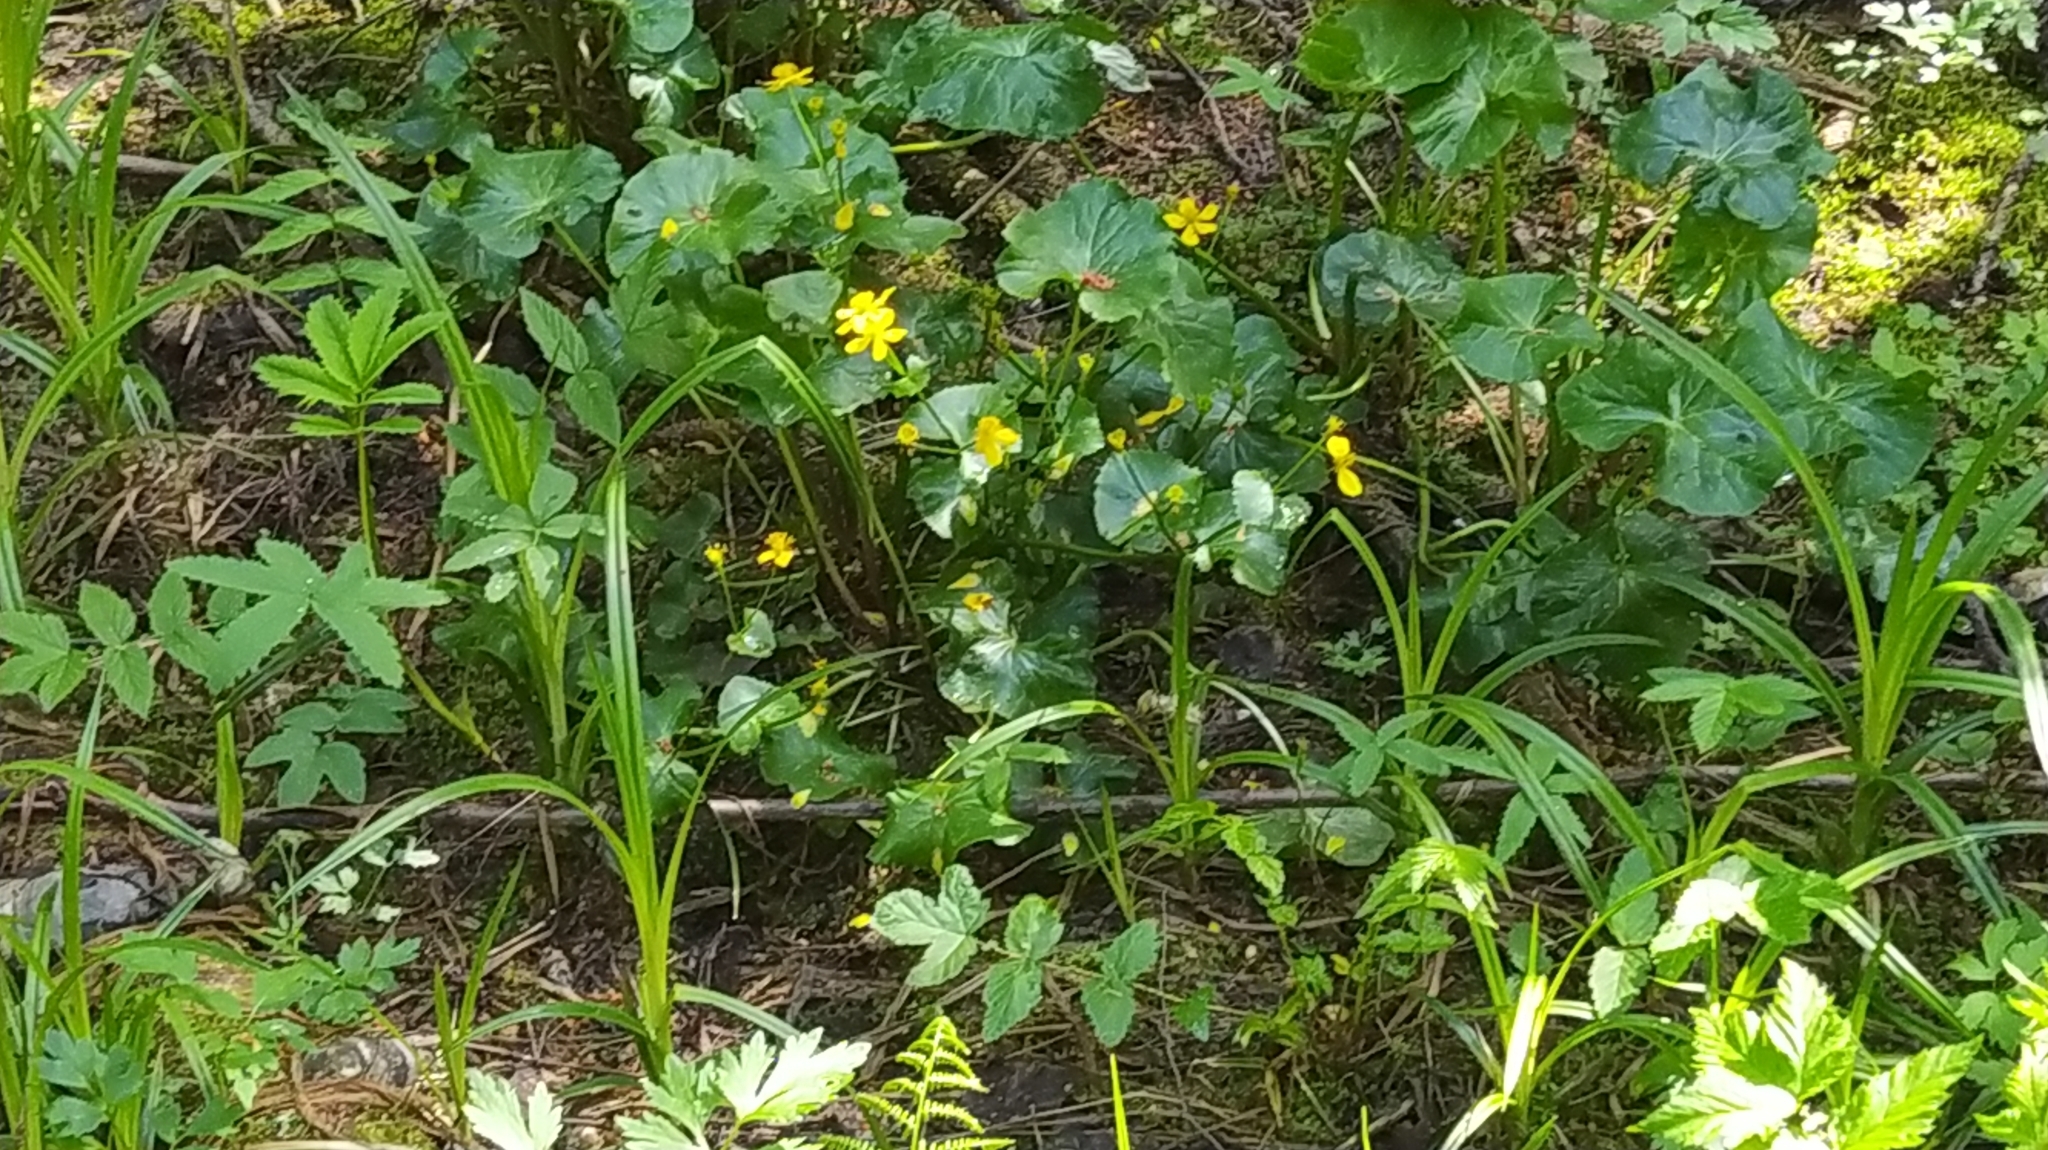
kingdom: Plantae
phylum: Tracheophyta
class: Magnoliopsida
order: Ranunculales
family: Ranunculaceae
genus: Caltha
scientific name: Caltha palustris
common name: Marsh marigold
